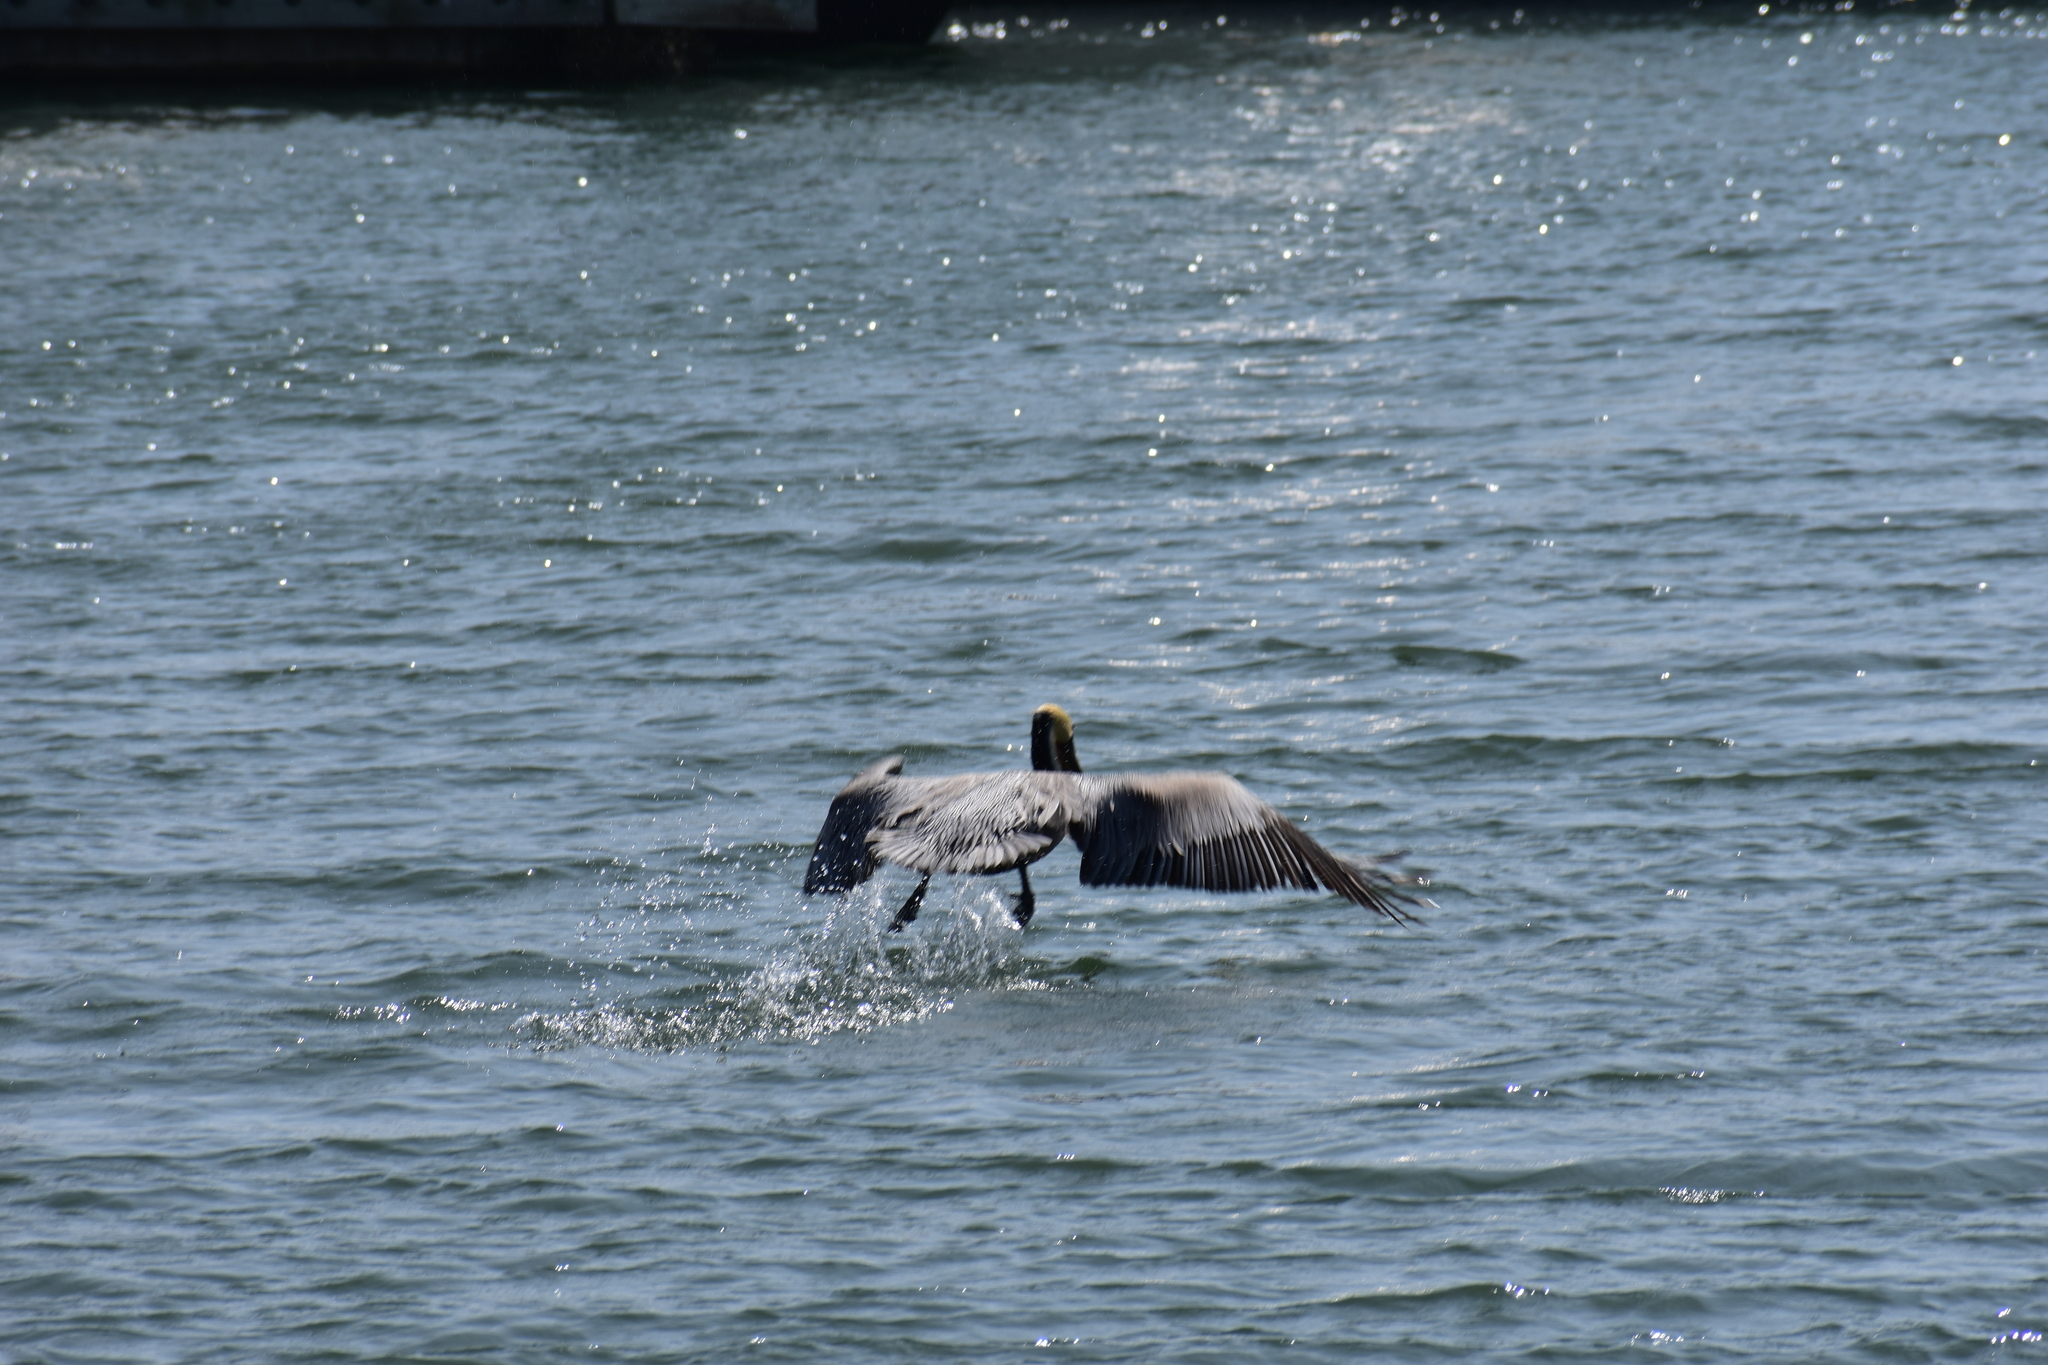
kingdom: Animalia
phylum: Chordata
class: Aves
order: Pelecaniformes
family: Pelecanidae
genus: Pelecanus
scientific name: Pelecanus occidentalis
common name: Brown pelican
